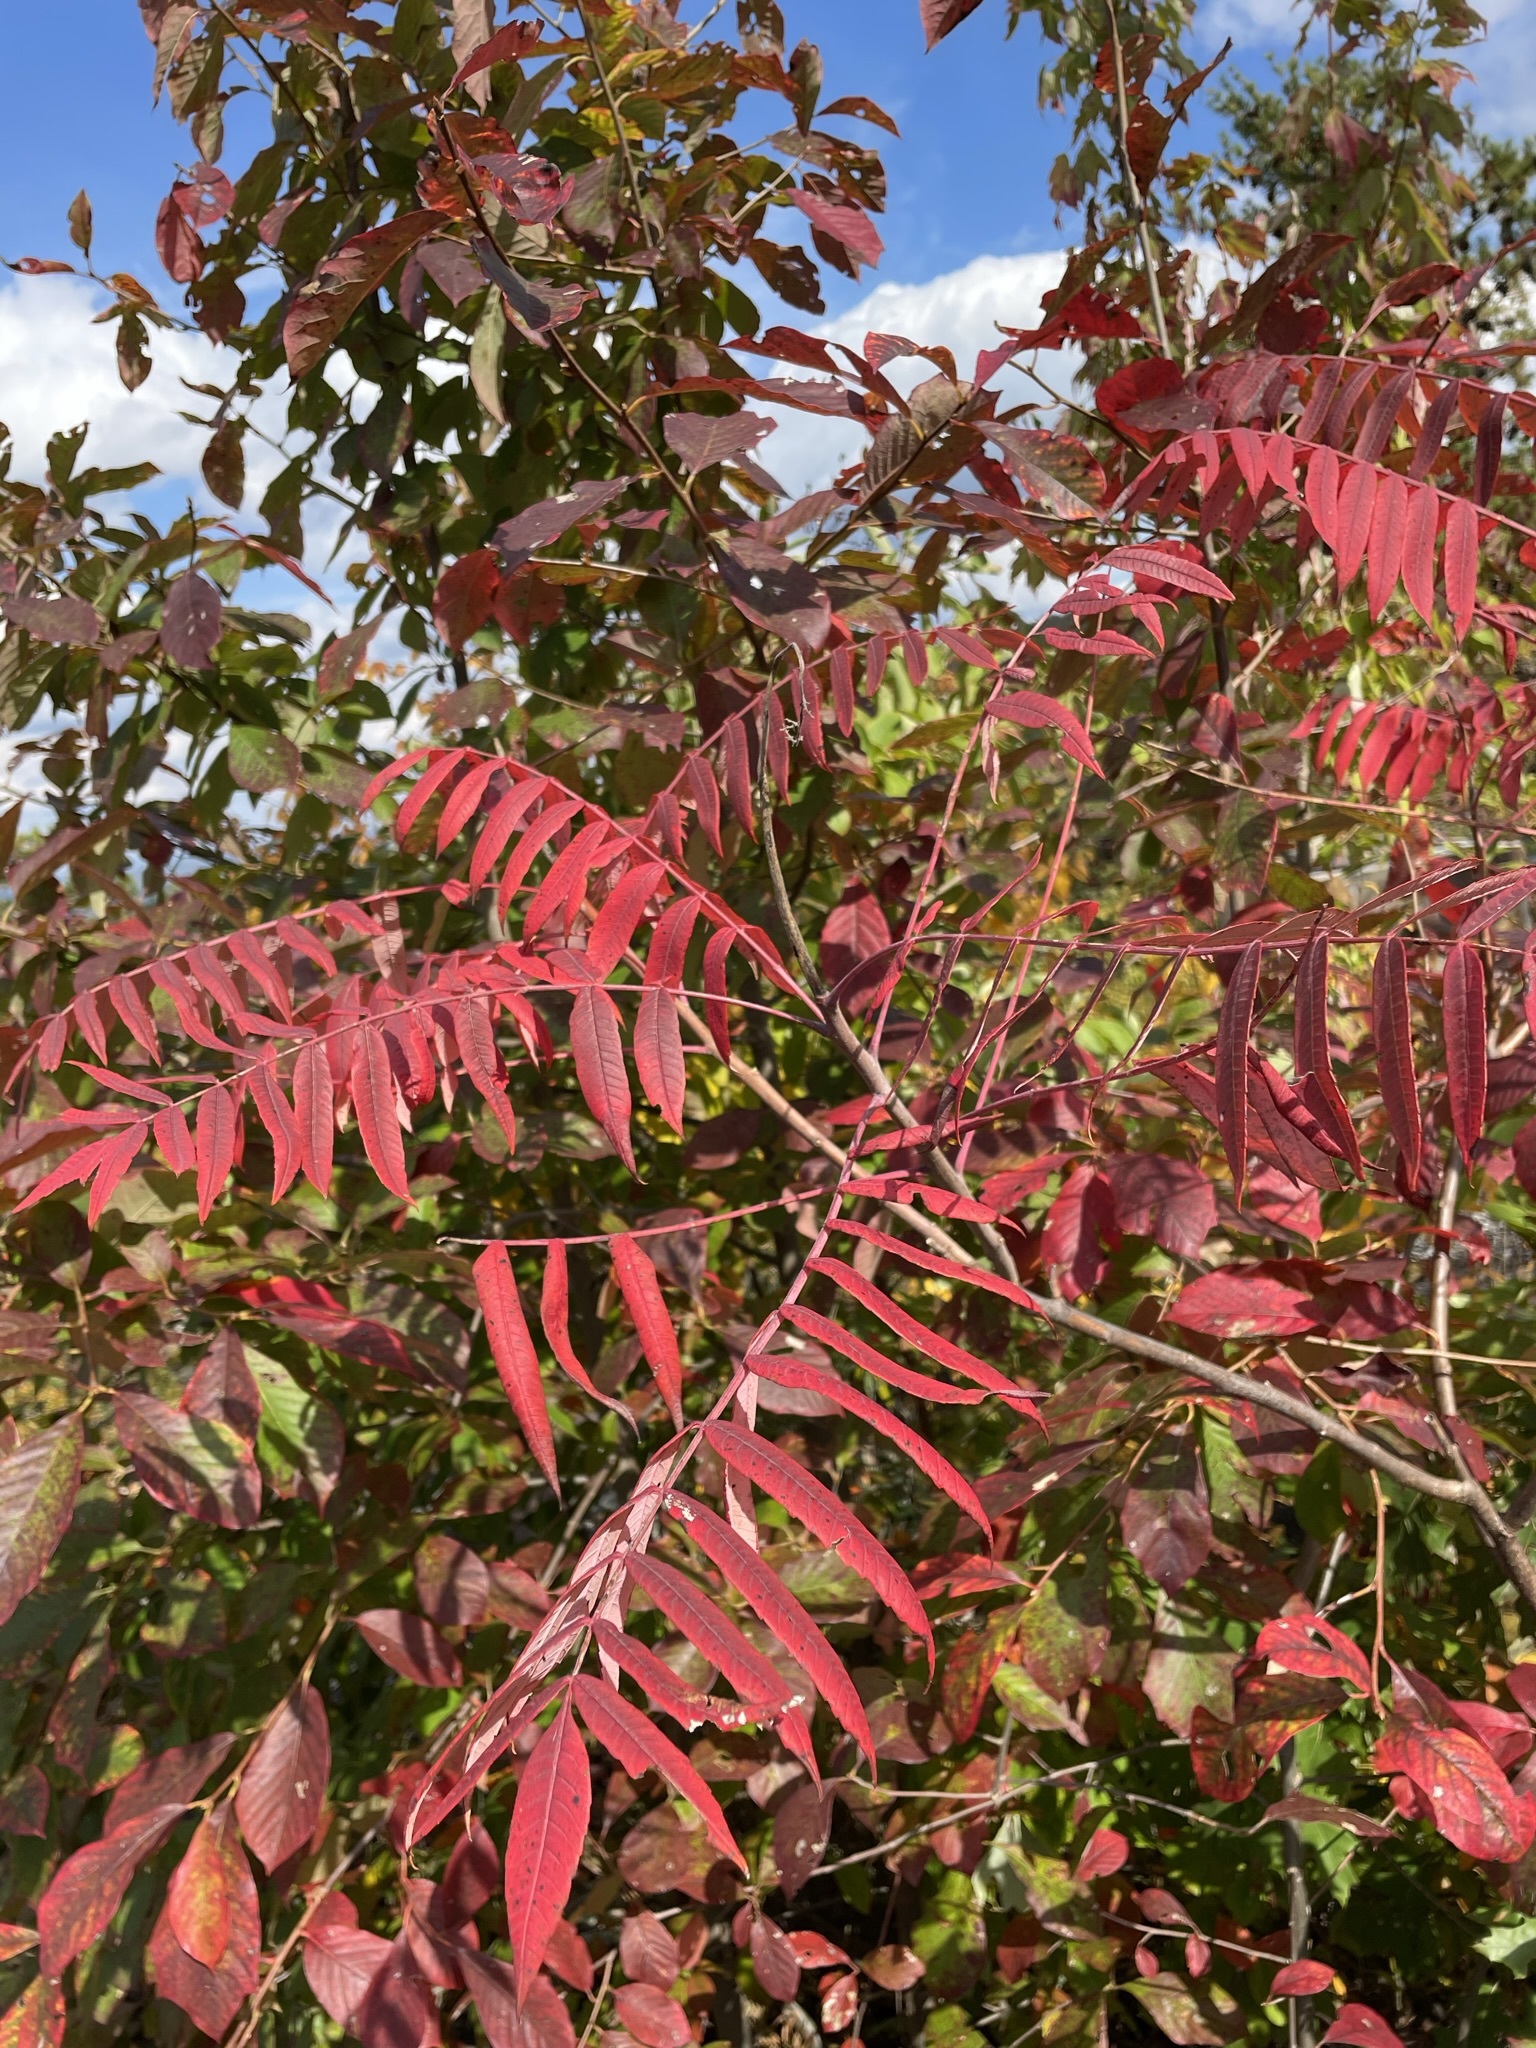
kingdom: Plantae
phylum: Tracheophyta
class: Magnoliopsida
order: Sapindales
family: Anacardiaceae
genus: Rhus
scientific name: Rhus glabra
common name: Scarlet sumac
